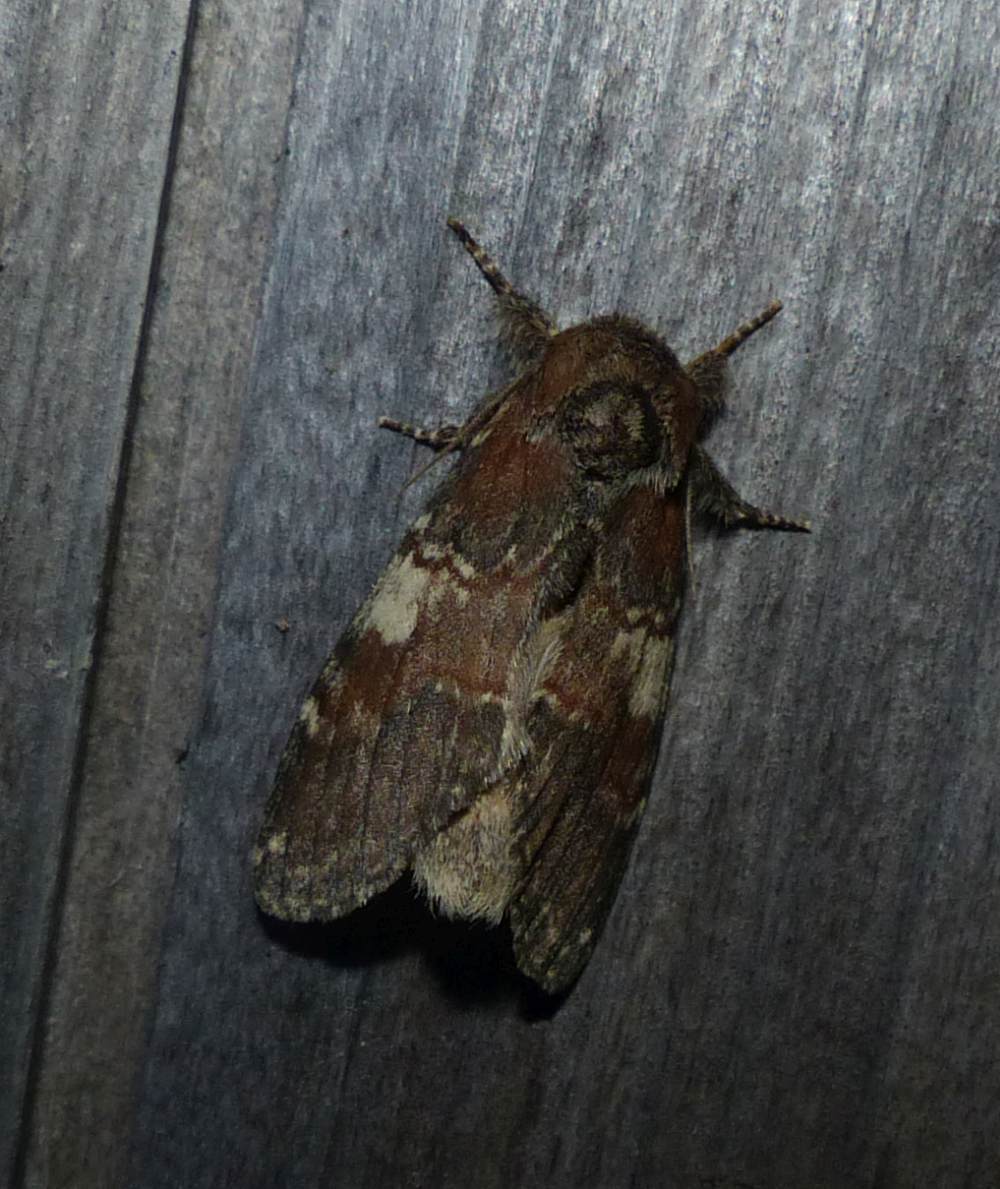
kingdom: Animalia
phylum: Arthropoda
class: Insecta
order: Lepidoptera
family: Notodontidae
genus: Peridea
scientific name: Peridea ferruginea
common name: Chocolate prominent
